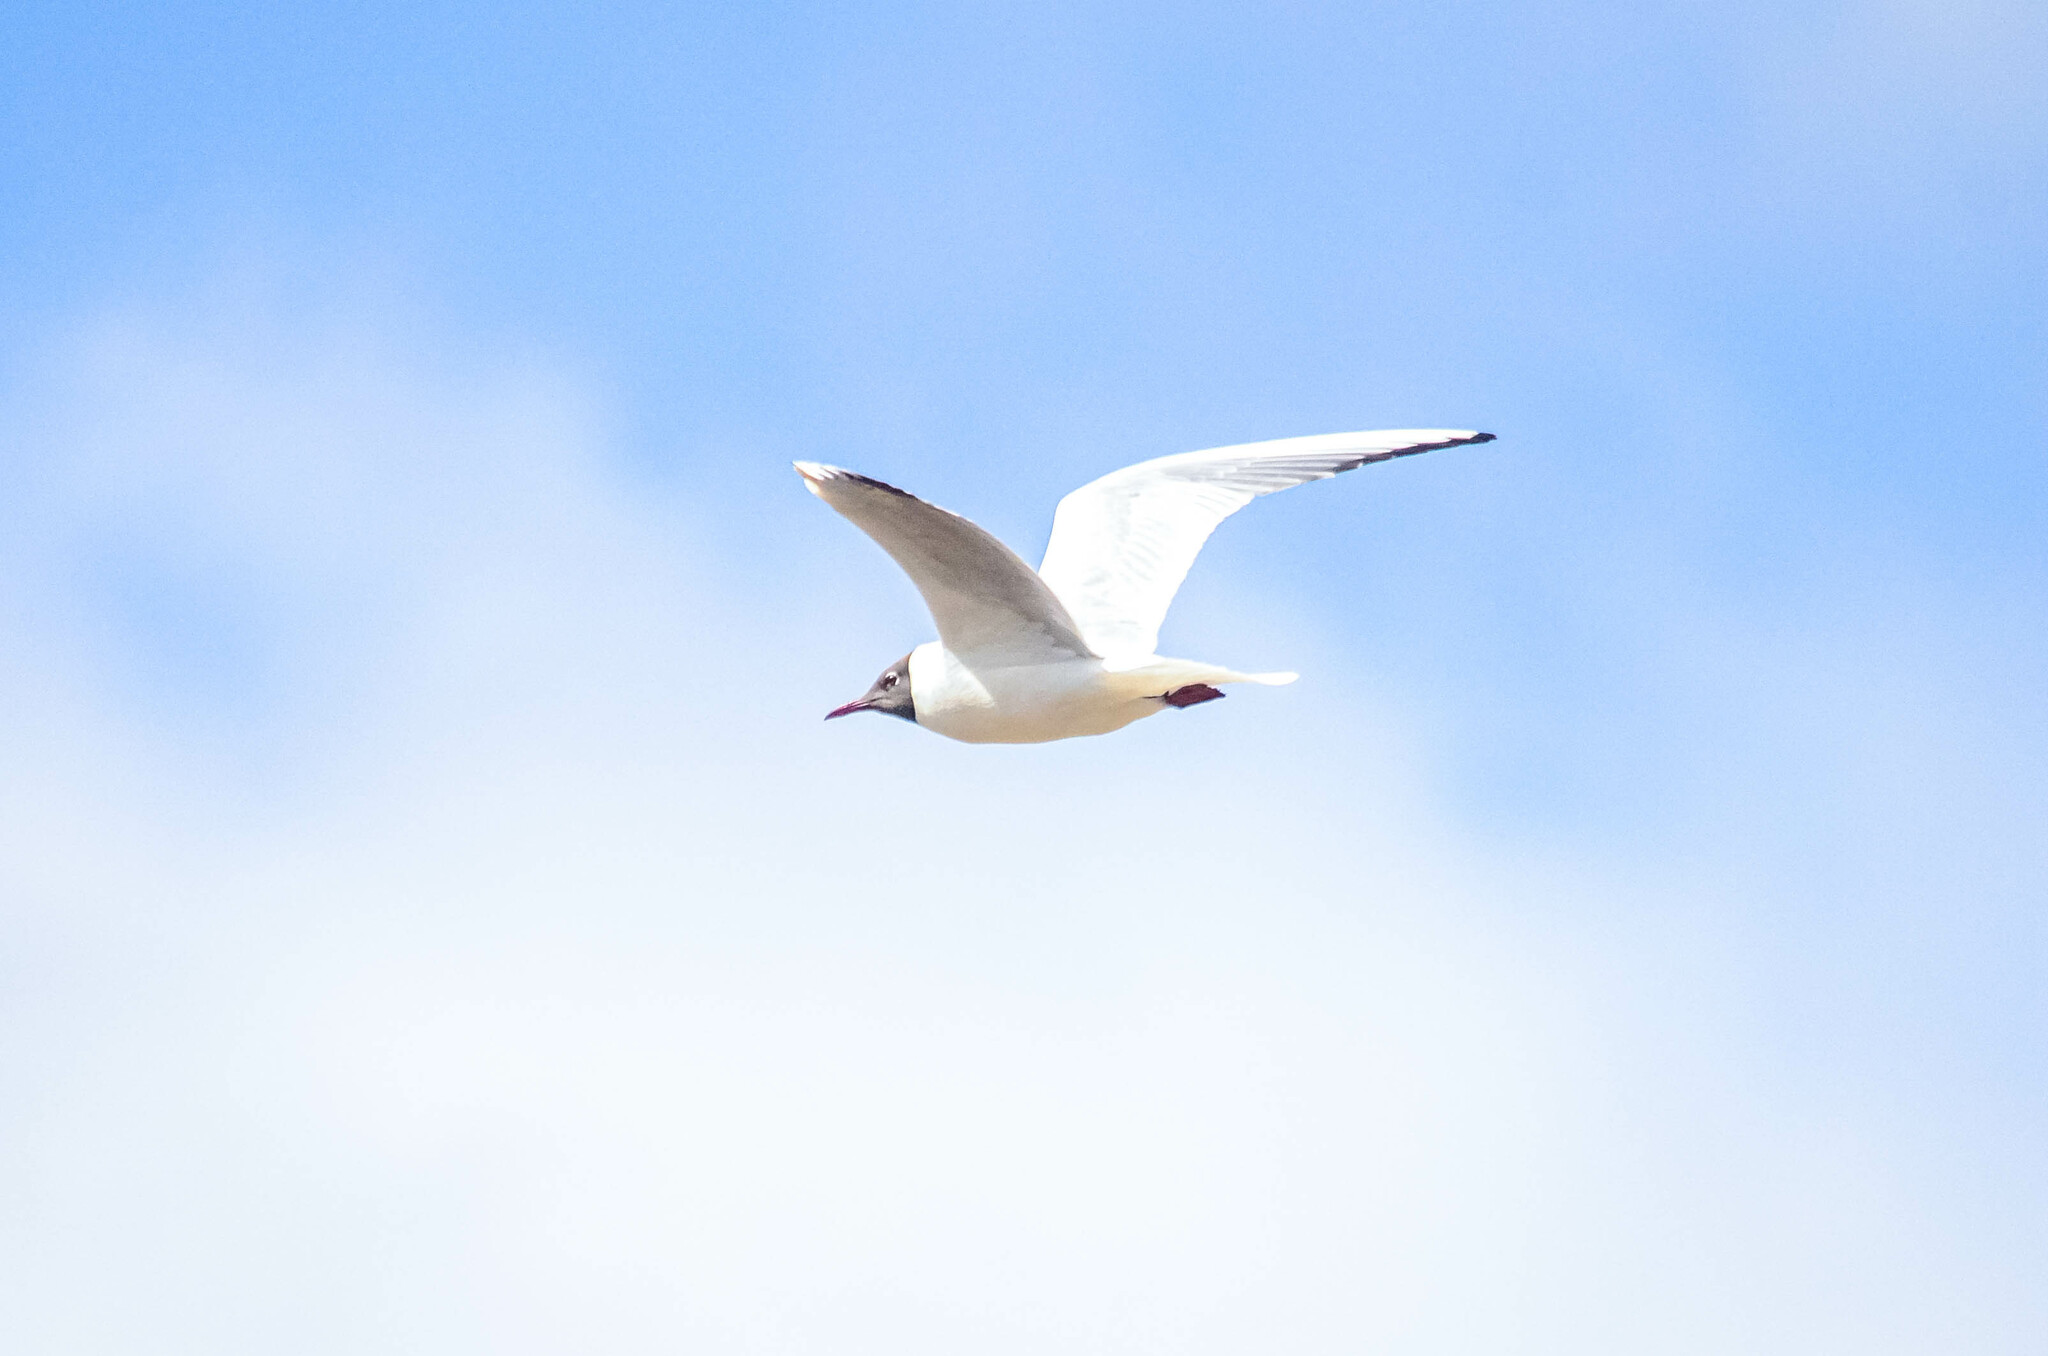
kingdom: Animalia
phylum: Chordata
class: Aves
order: Charadriiformes
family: Laridae
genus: Chroicocephalus
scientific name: Chroicocephalus ridibundus
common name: Black-headed gull
